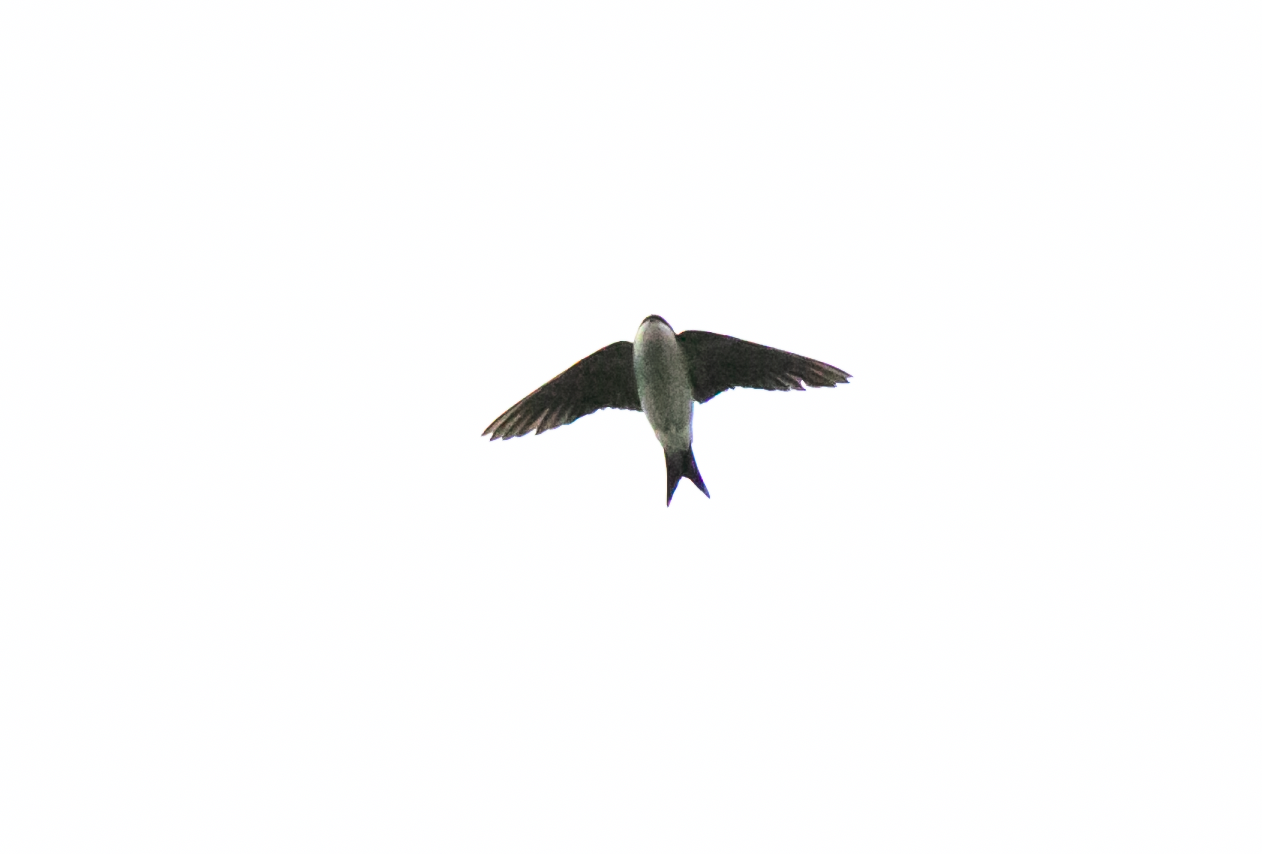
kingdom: Animalia
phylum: Chordata
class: Aves
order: Passeriformes
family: Hirundinidae
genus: Delichon
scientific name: Delichon urbicum
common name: Common house martin
